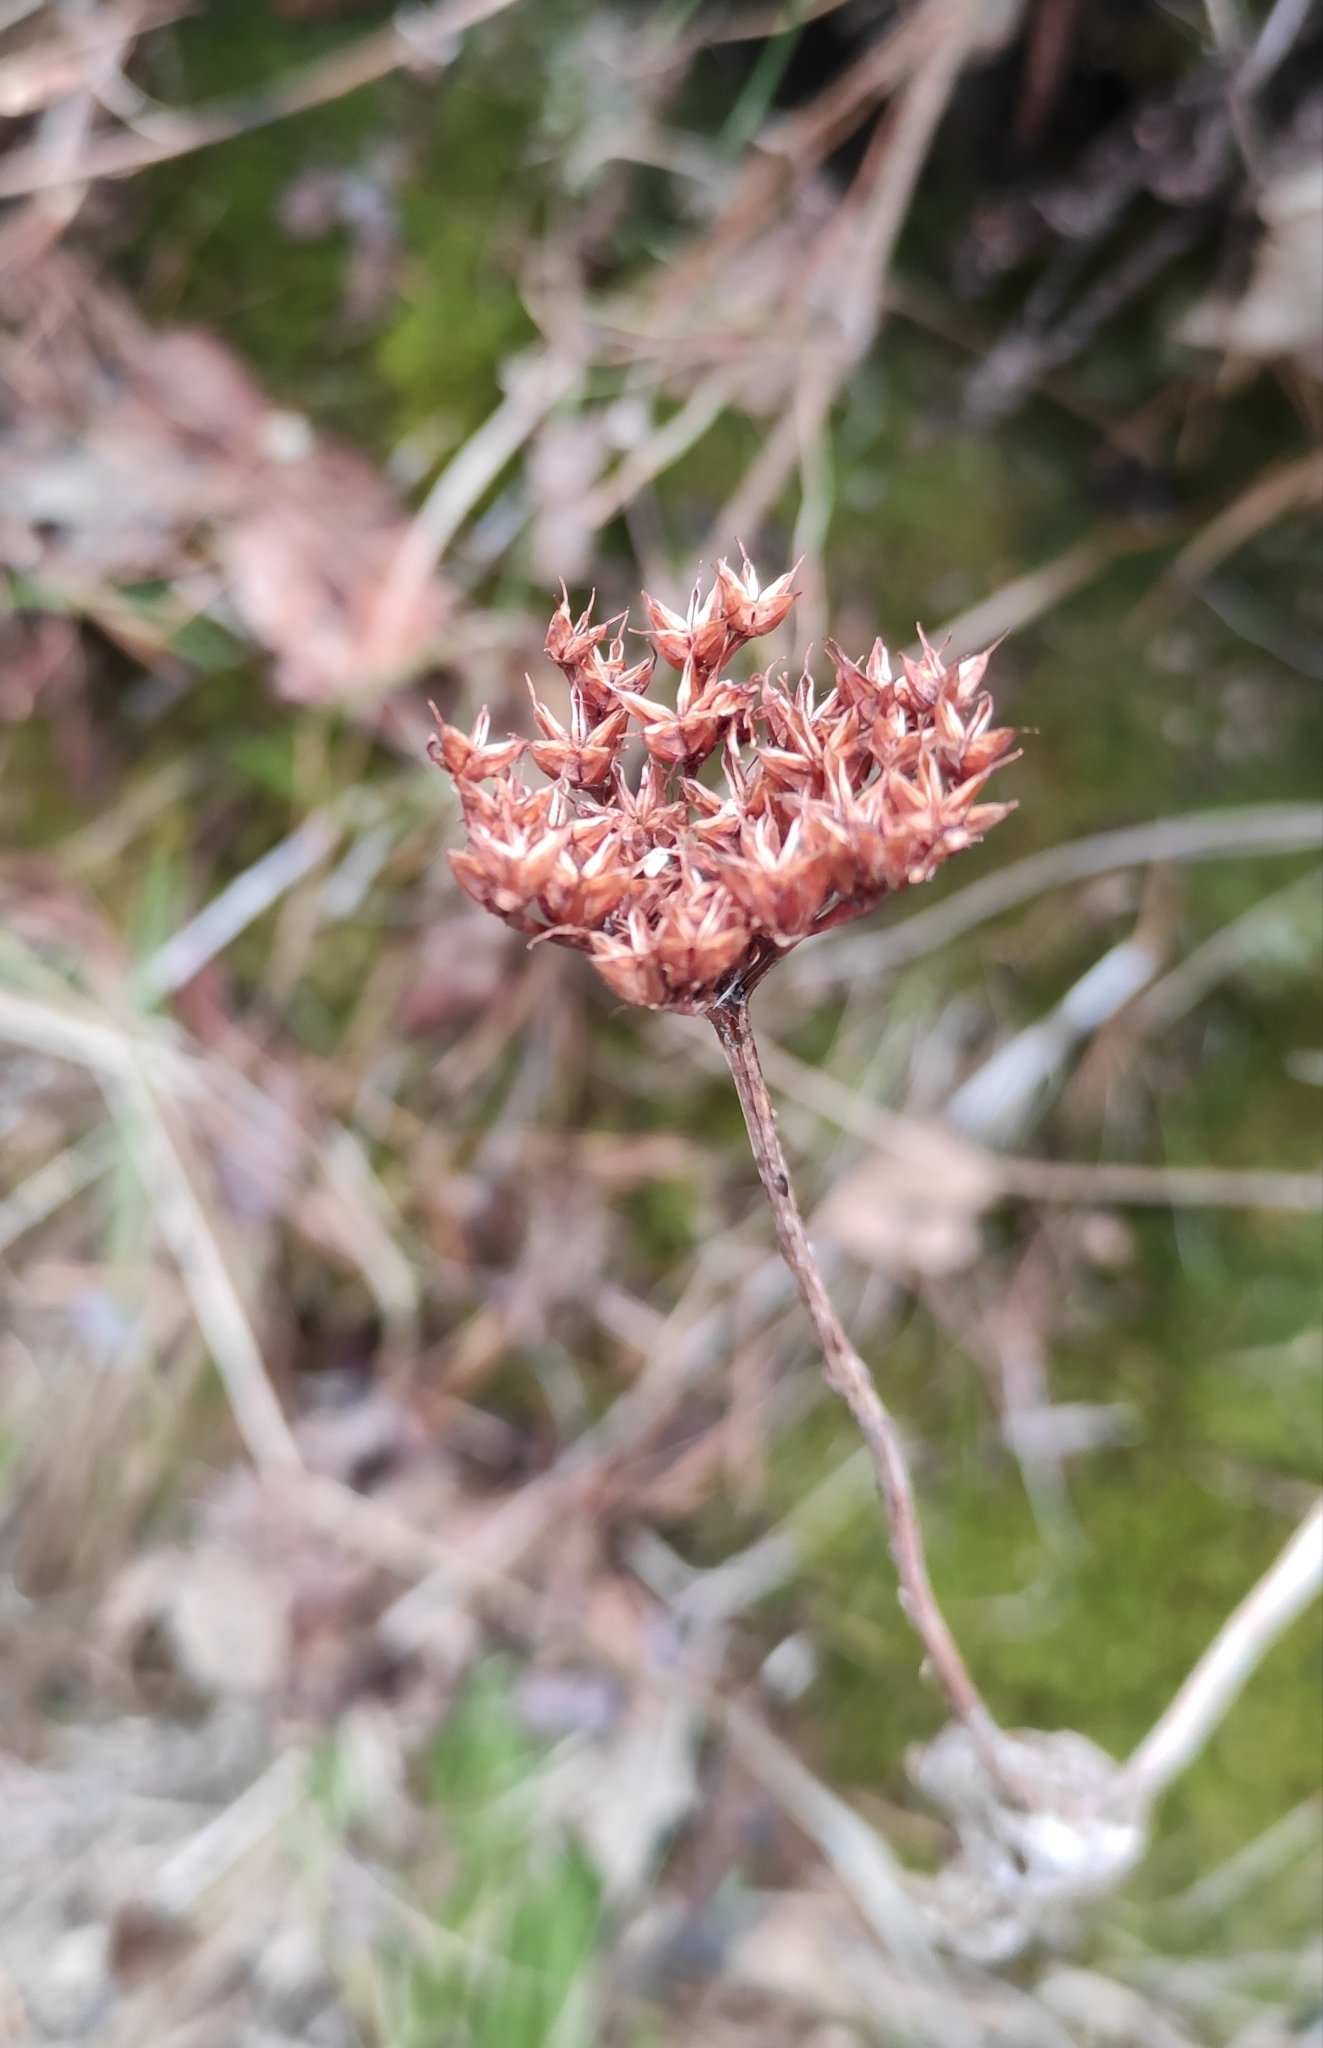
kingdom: Plantae
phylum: Tracheophyta
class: Magnoliopsida
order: Saxifragales
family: Crassulaceae
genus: Phedimus
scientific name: Phedimus aizoon
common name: Orpin aizoon
